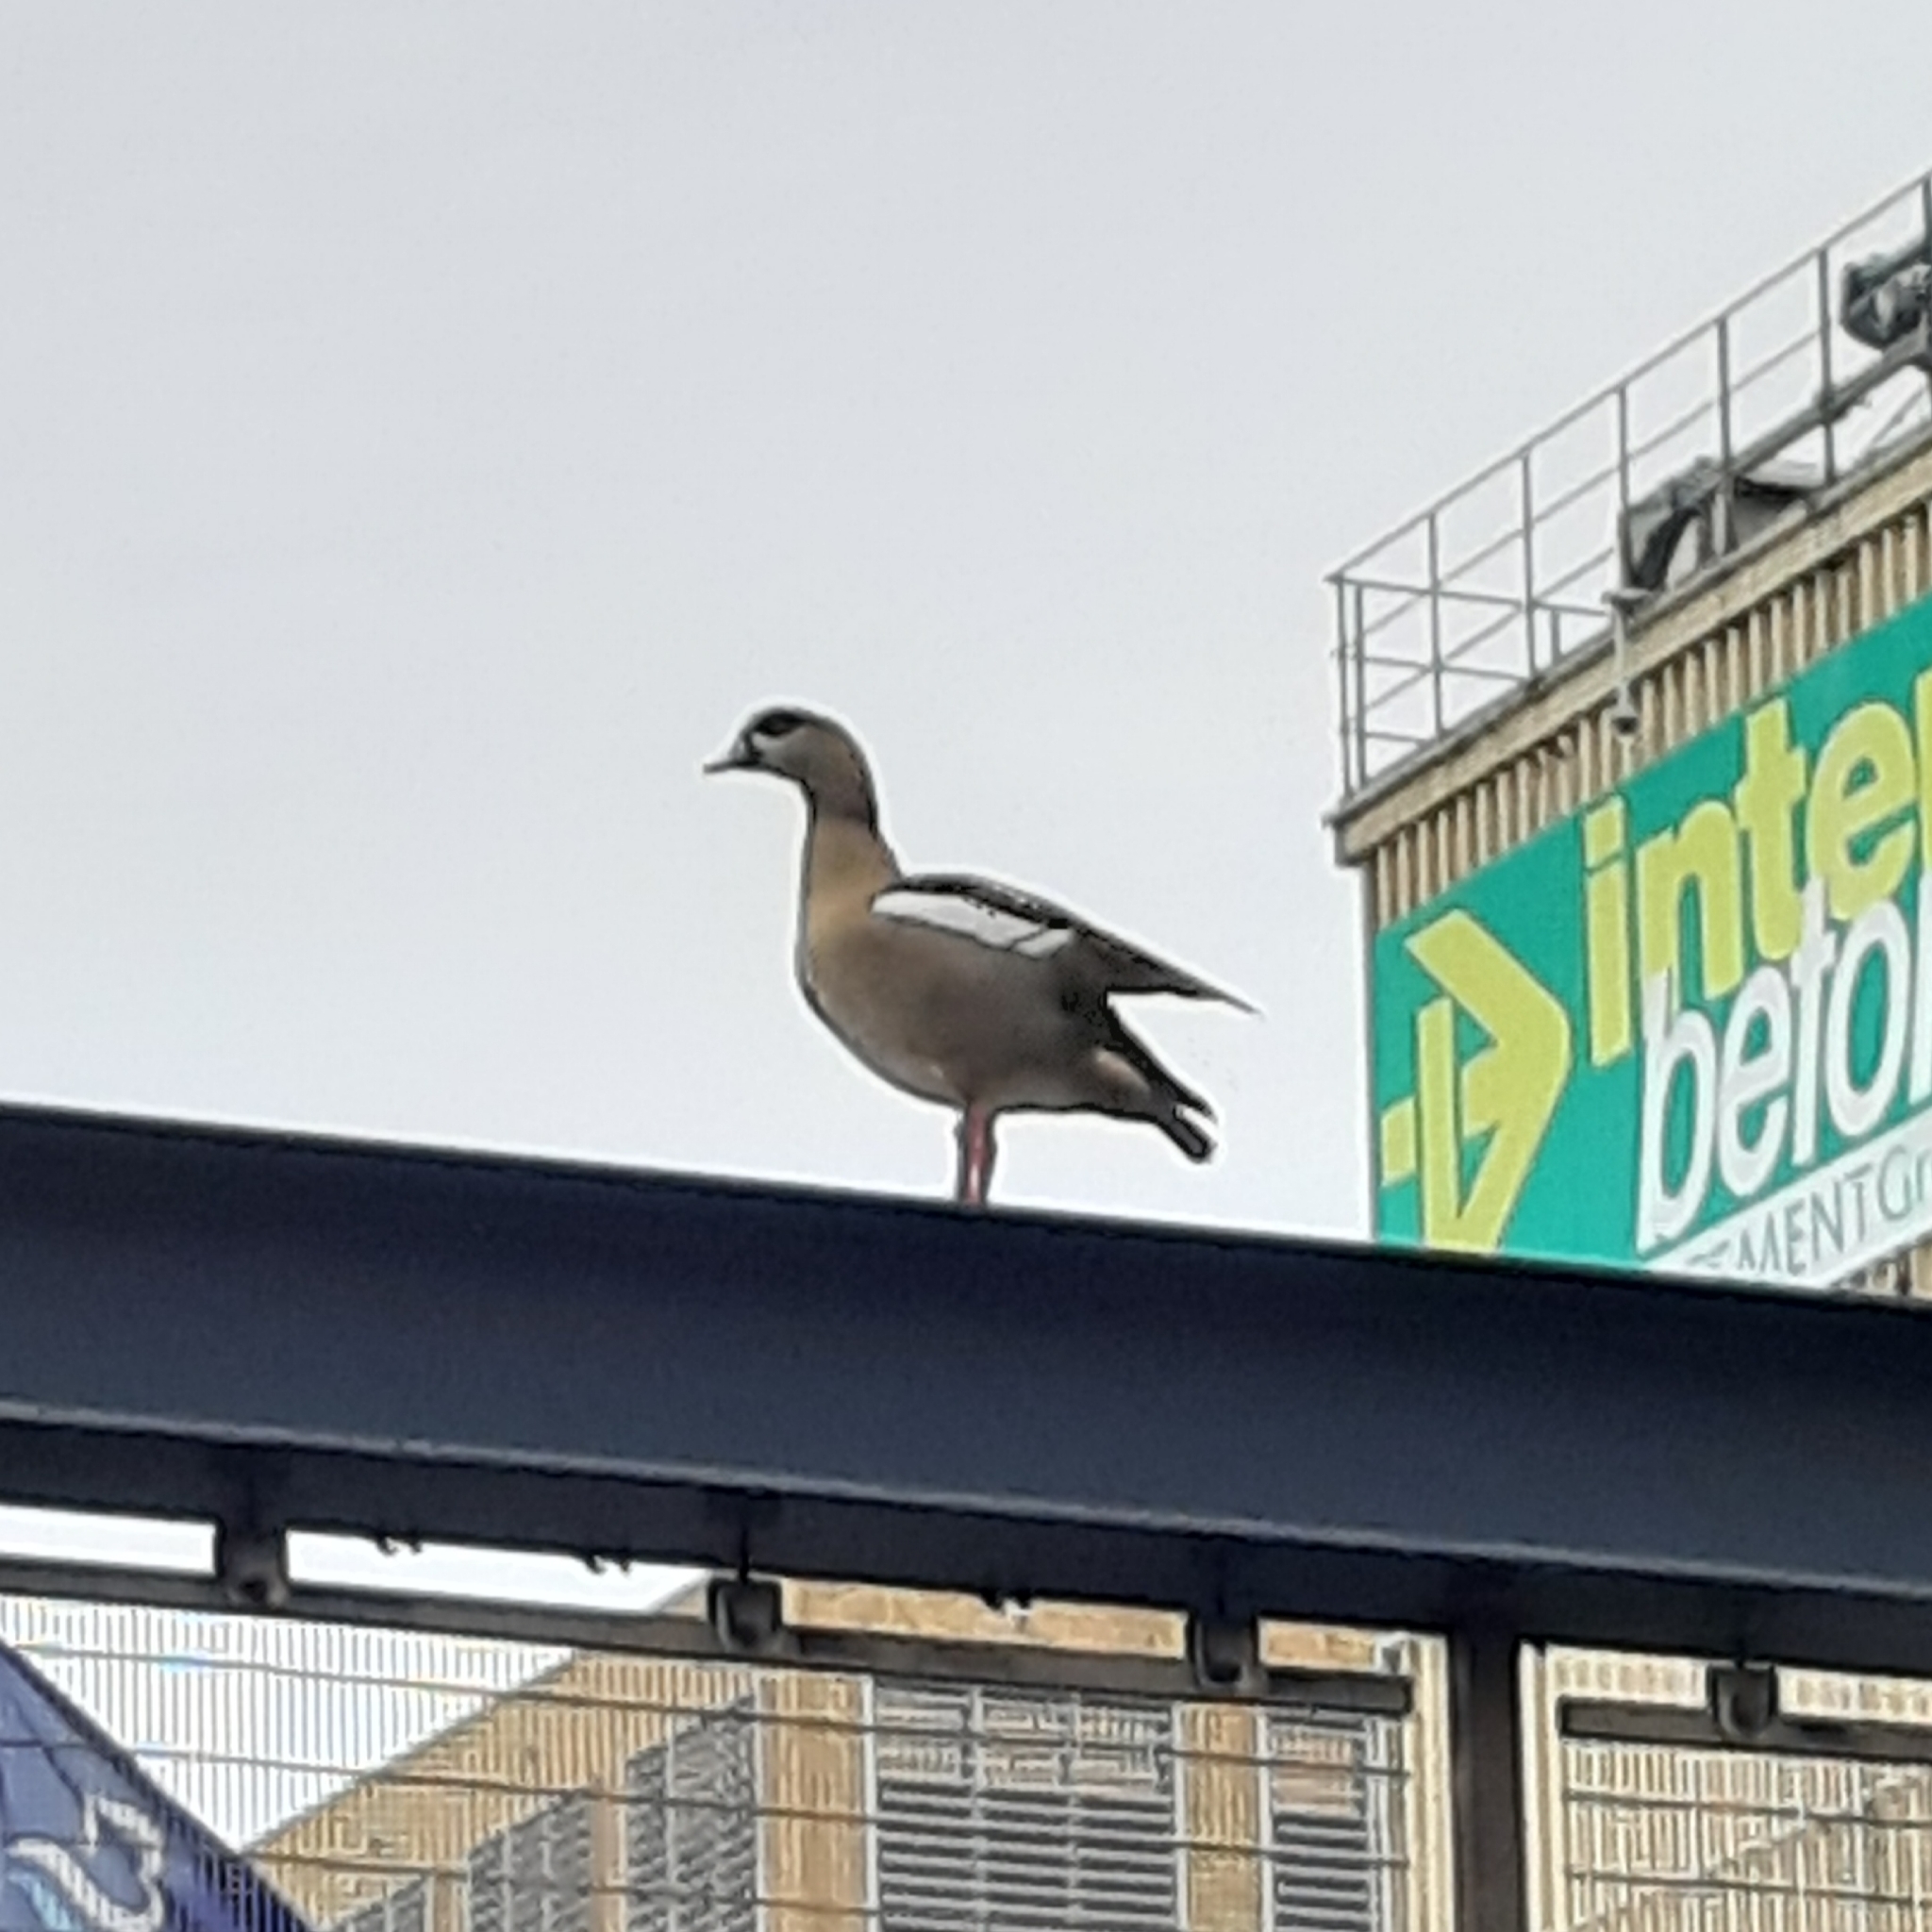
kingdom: Animalia
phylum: Chordata
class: Aves
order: Anseriformes
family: Anatidae
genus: Alopochen
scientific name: Alopochen aegyptiaca
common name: Egyptian goose
